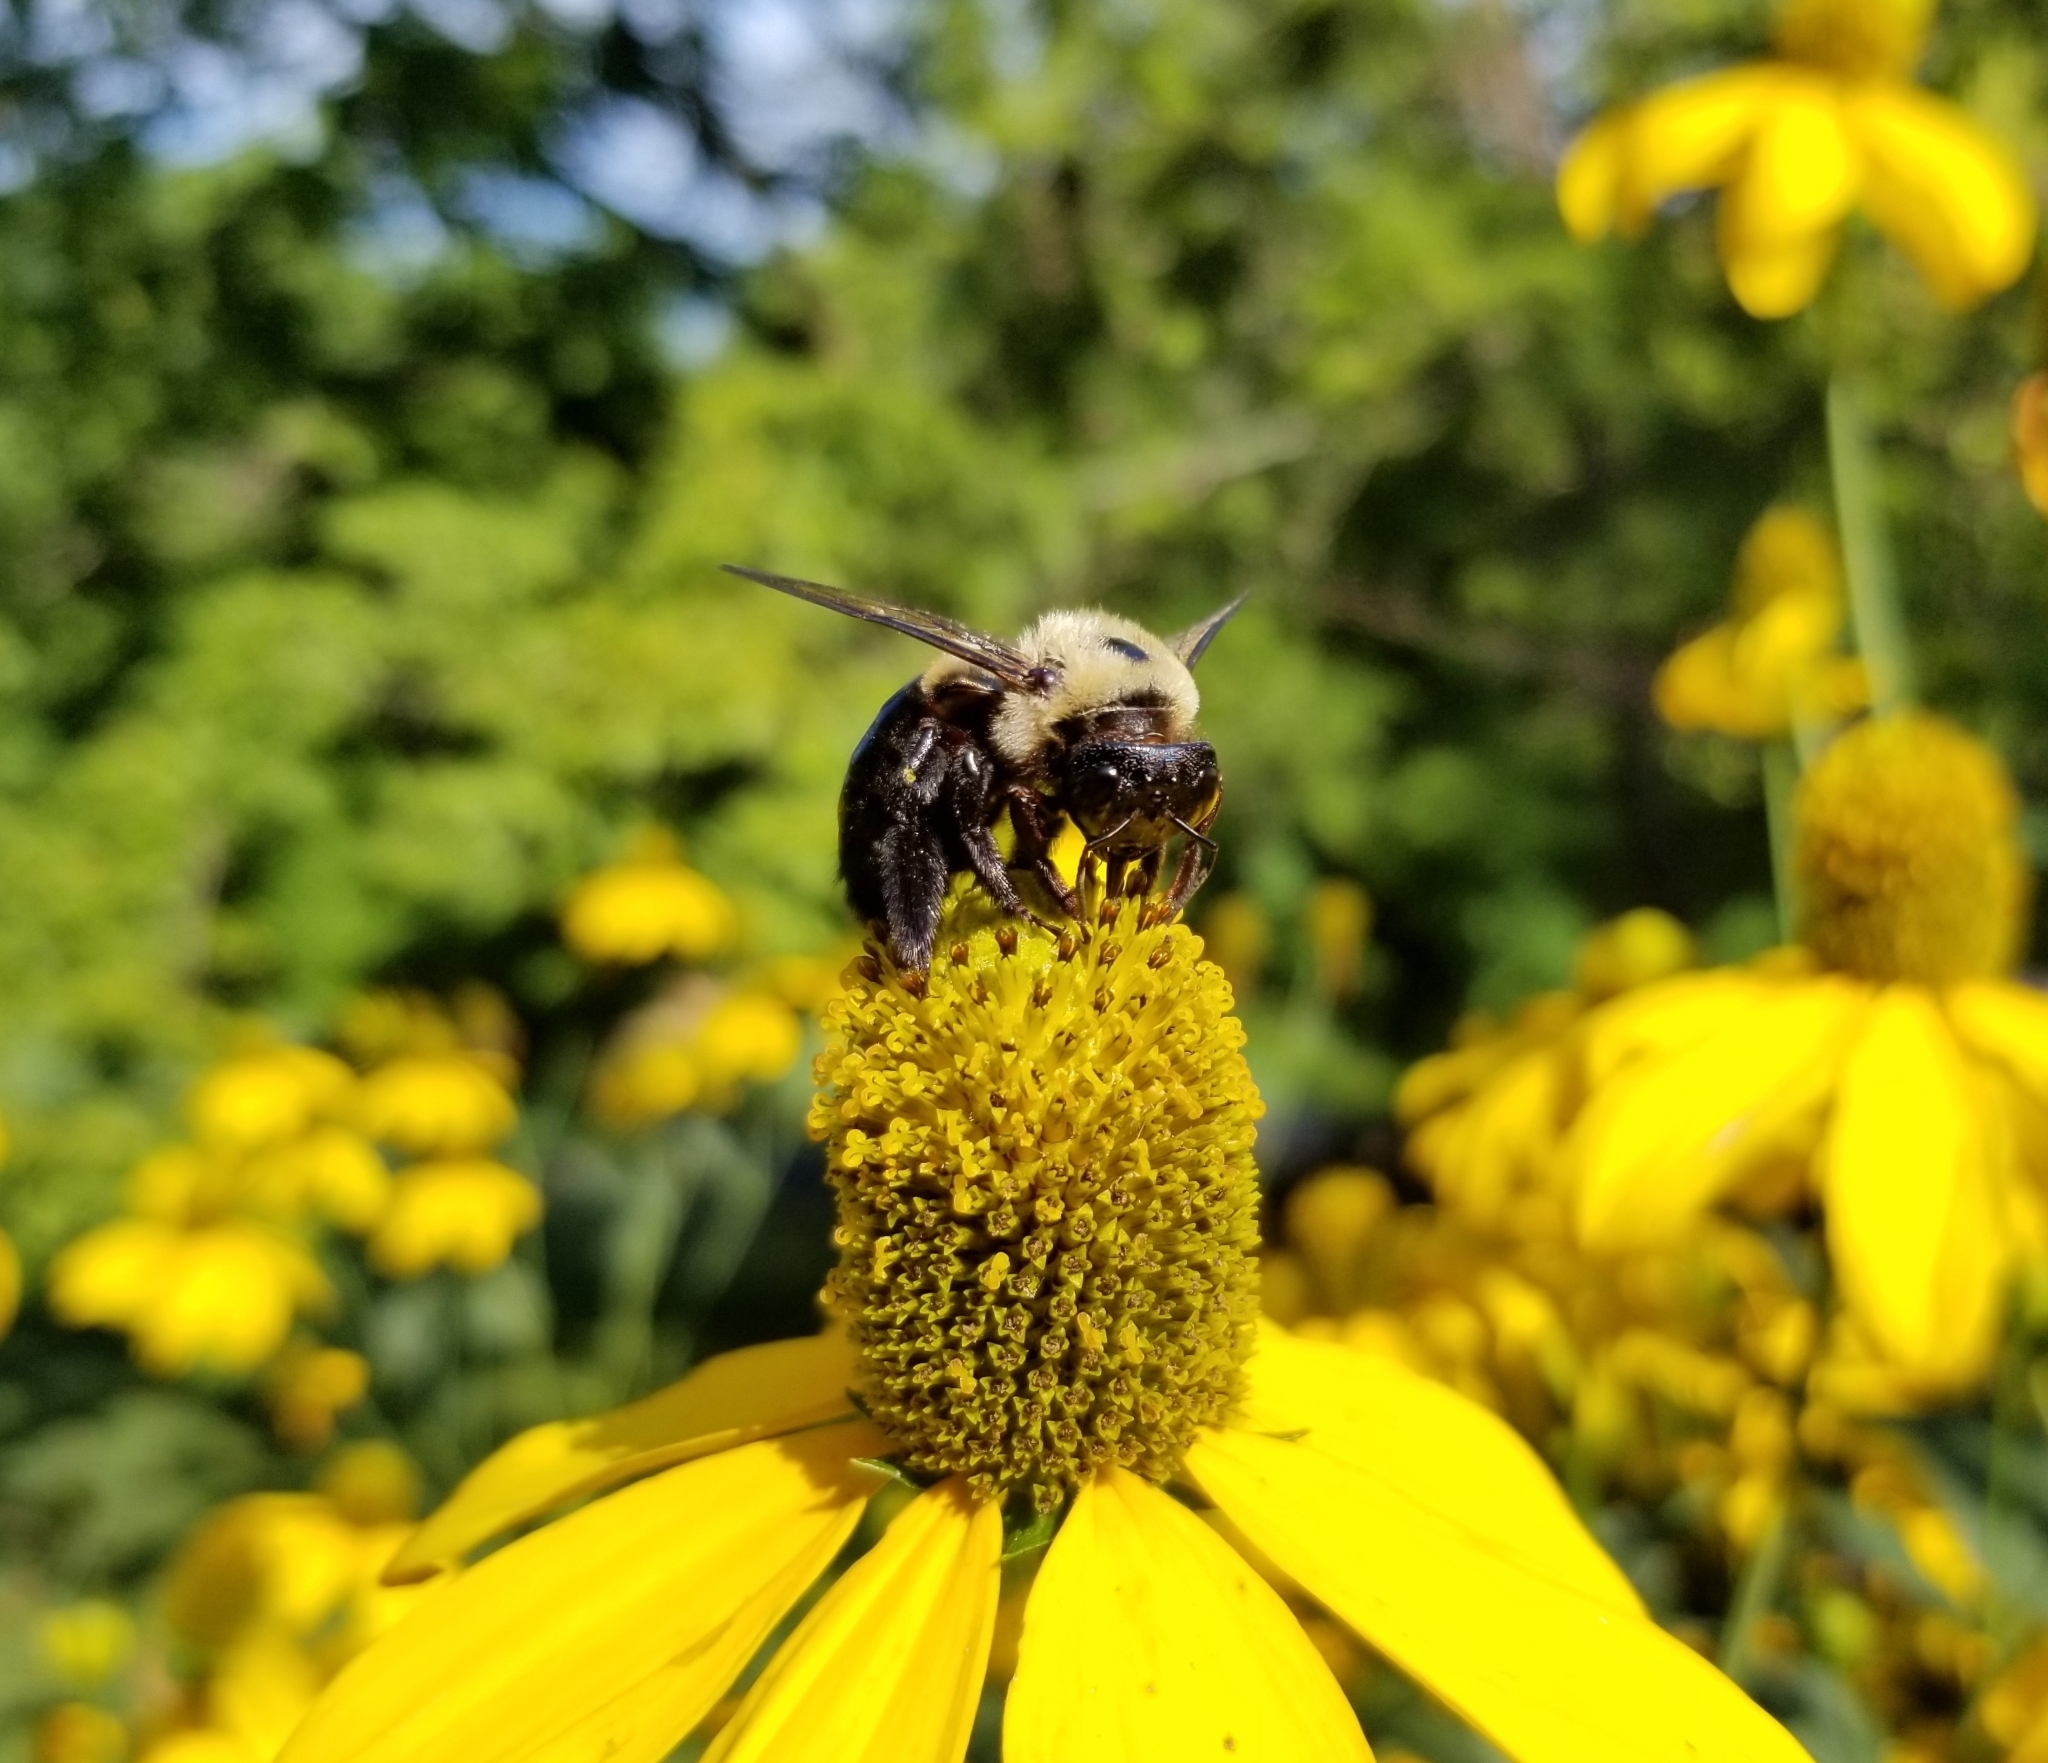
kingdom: Animalia
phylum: Arthropoda
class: Insecta
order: Hymenoptera
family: Apidae
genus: Xylocopa
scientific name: Xylocopa virginica
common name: Carpenter bee
